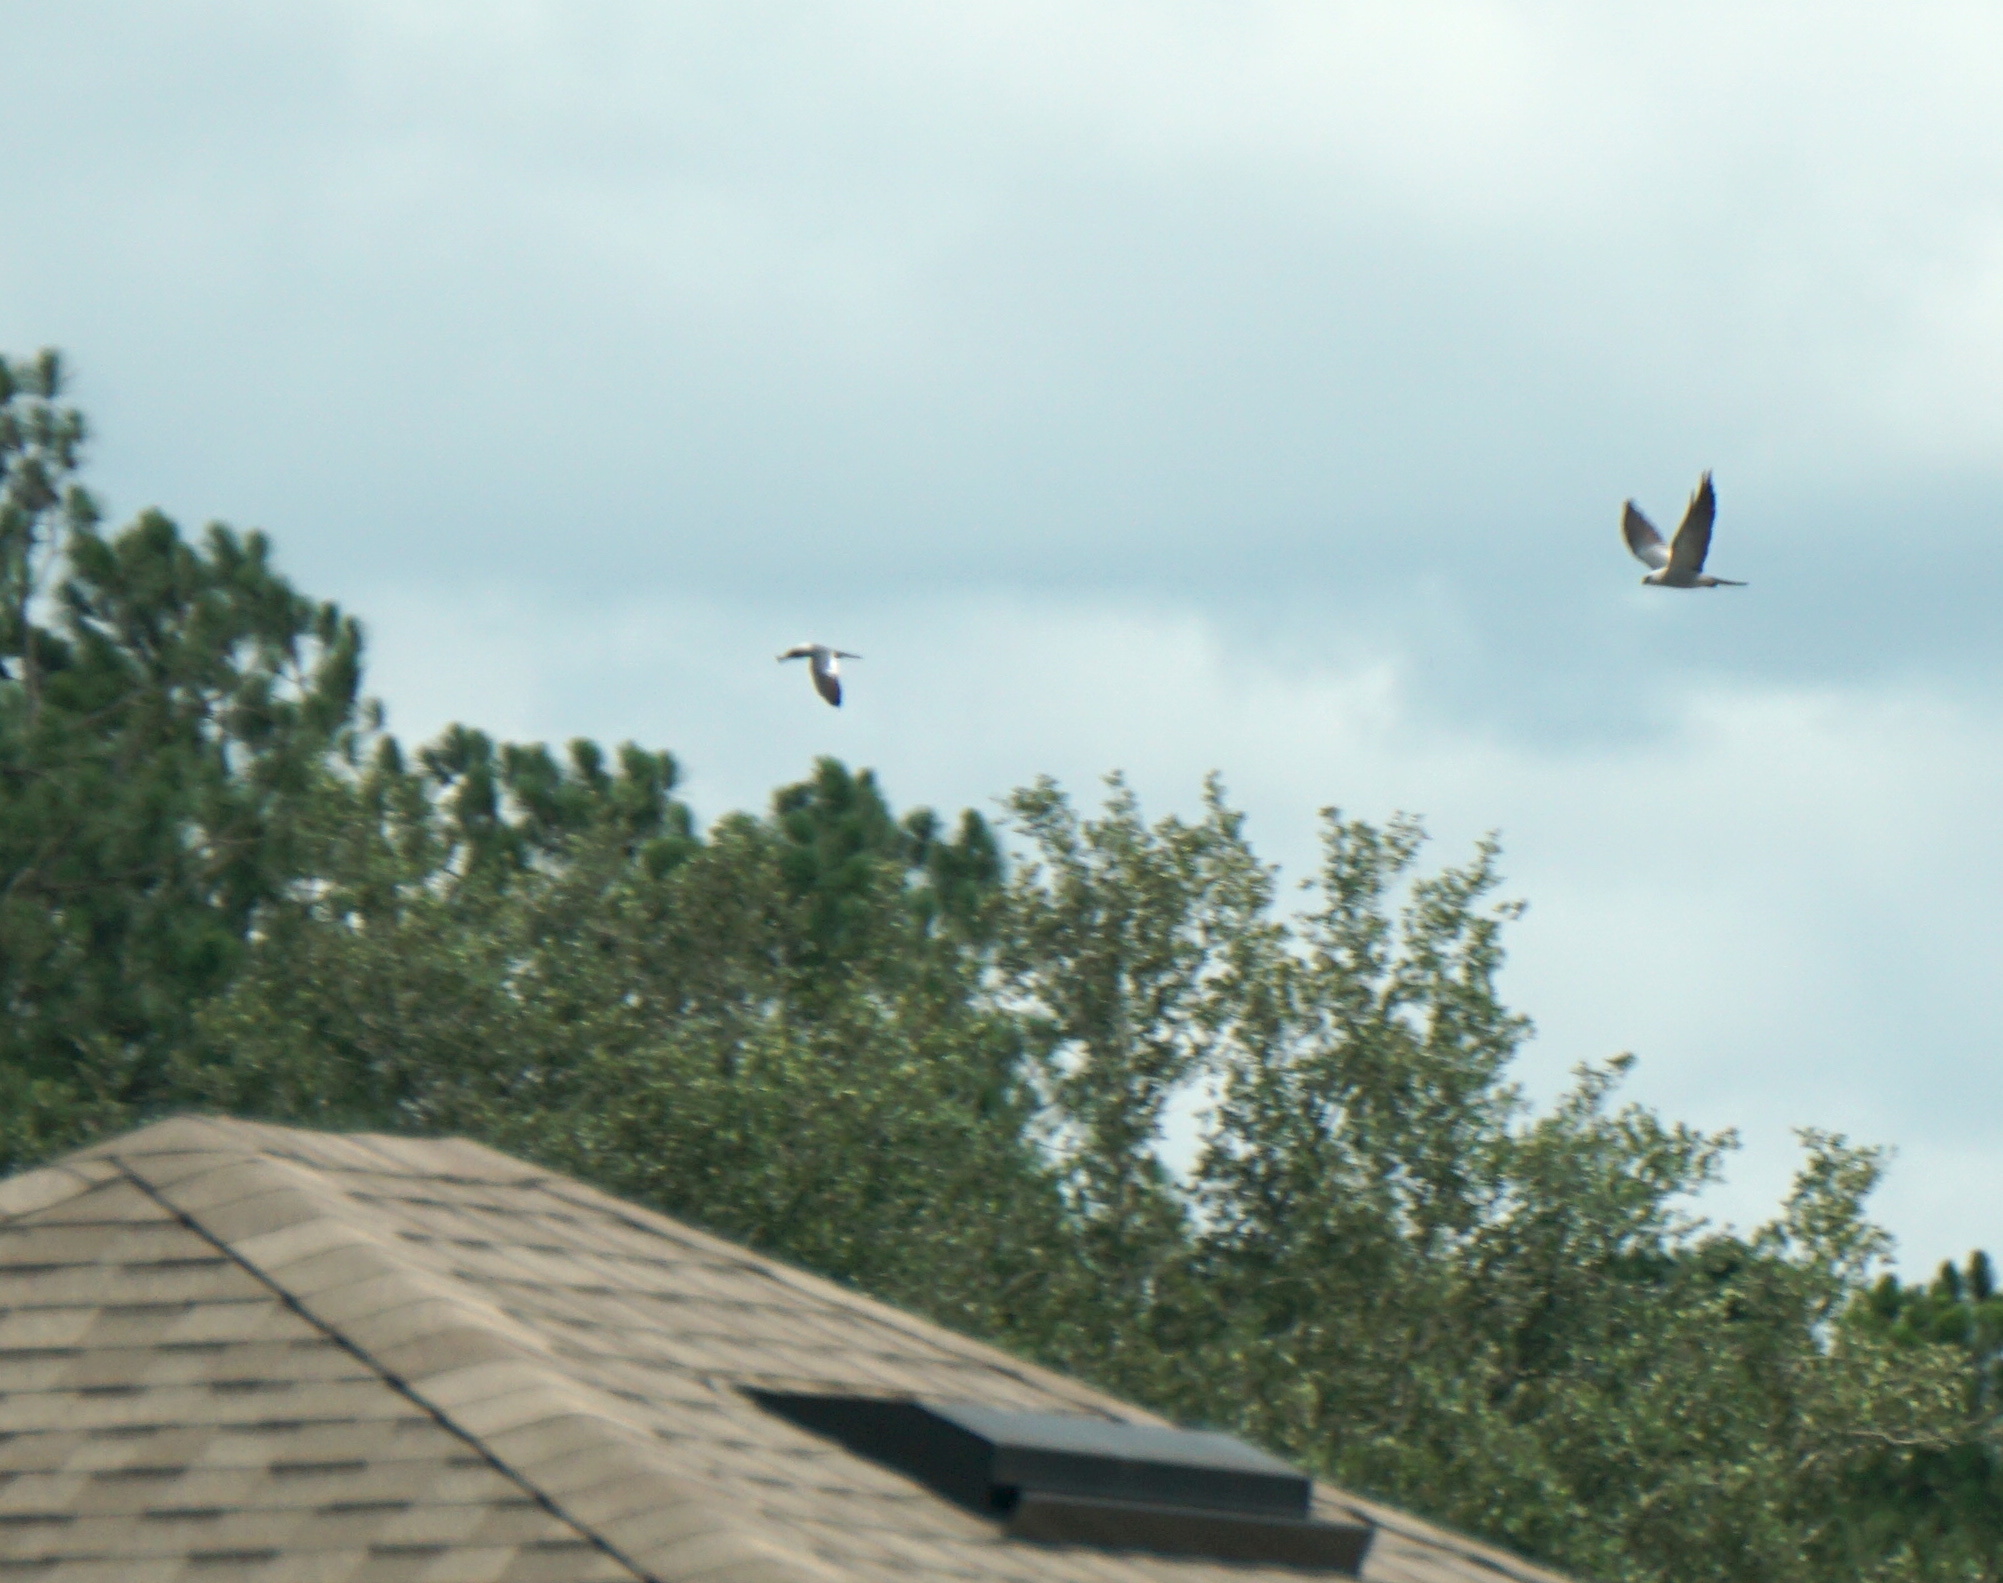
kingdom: Animalia
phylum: Chordata
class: Aves
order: Accipitriformes
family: Accipitridae
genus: Ictinia
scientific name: Ictinia mississippiensis
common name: Mississippi kite
